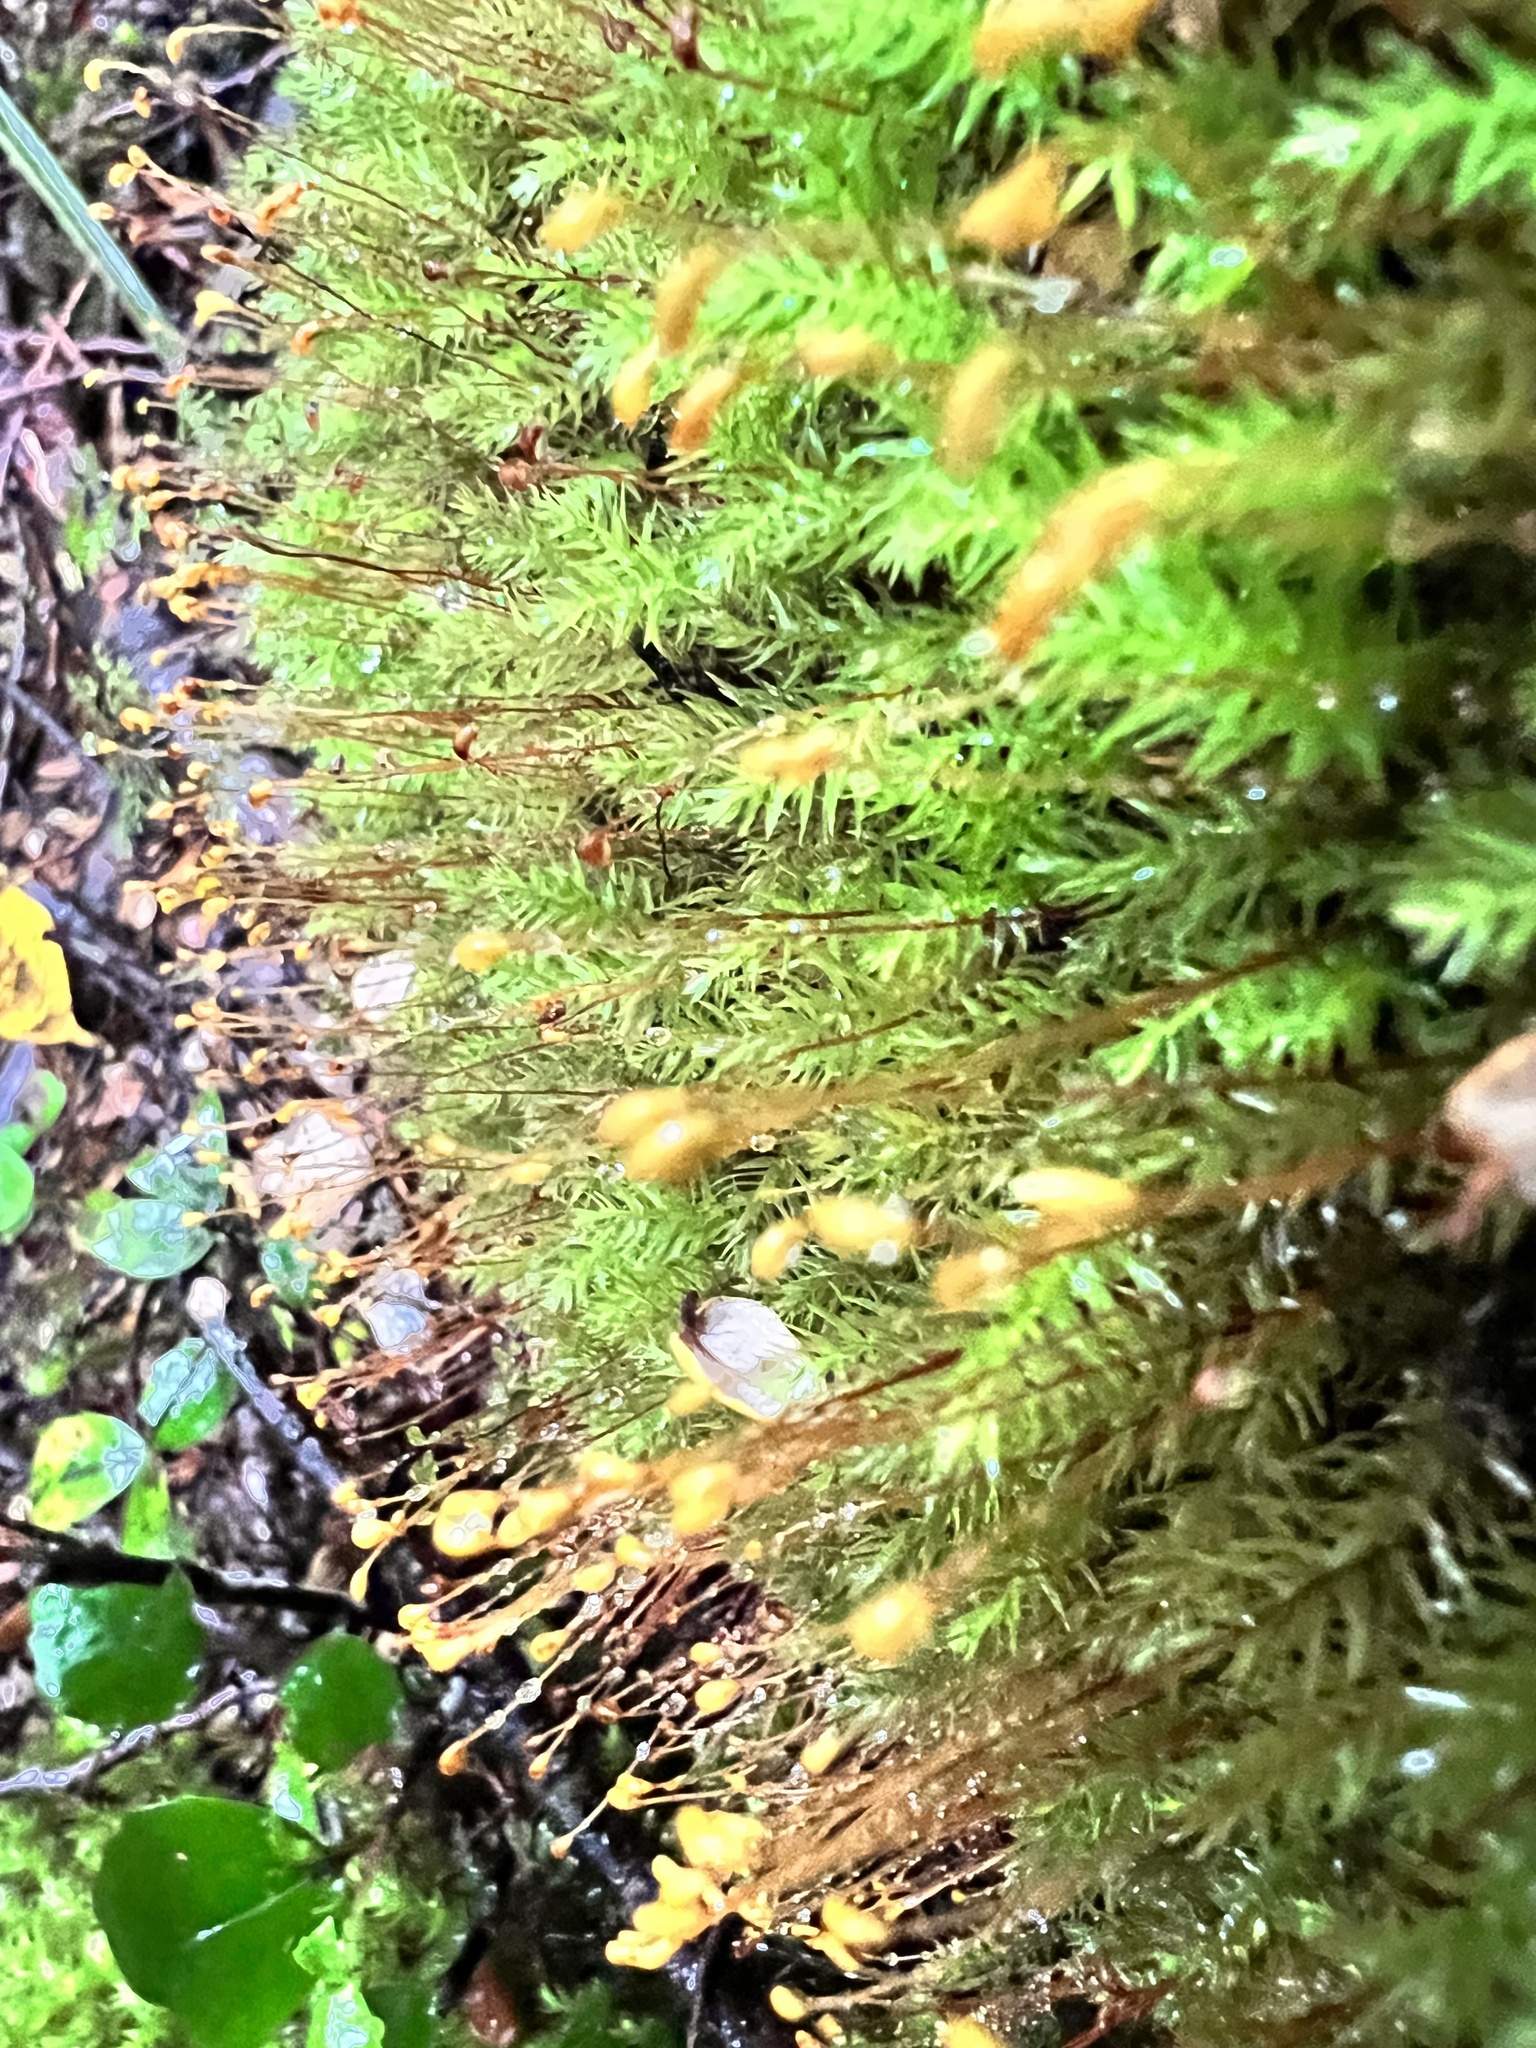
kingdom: Plantae
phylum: Bryophyta
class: Bryopsida
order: Aulacomniales
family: Aulacomniaceae
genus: Hymenodontopsis
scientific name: Hymenodontopsis mnioides
